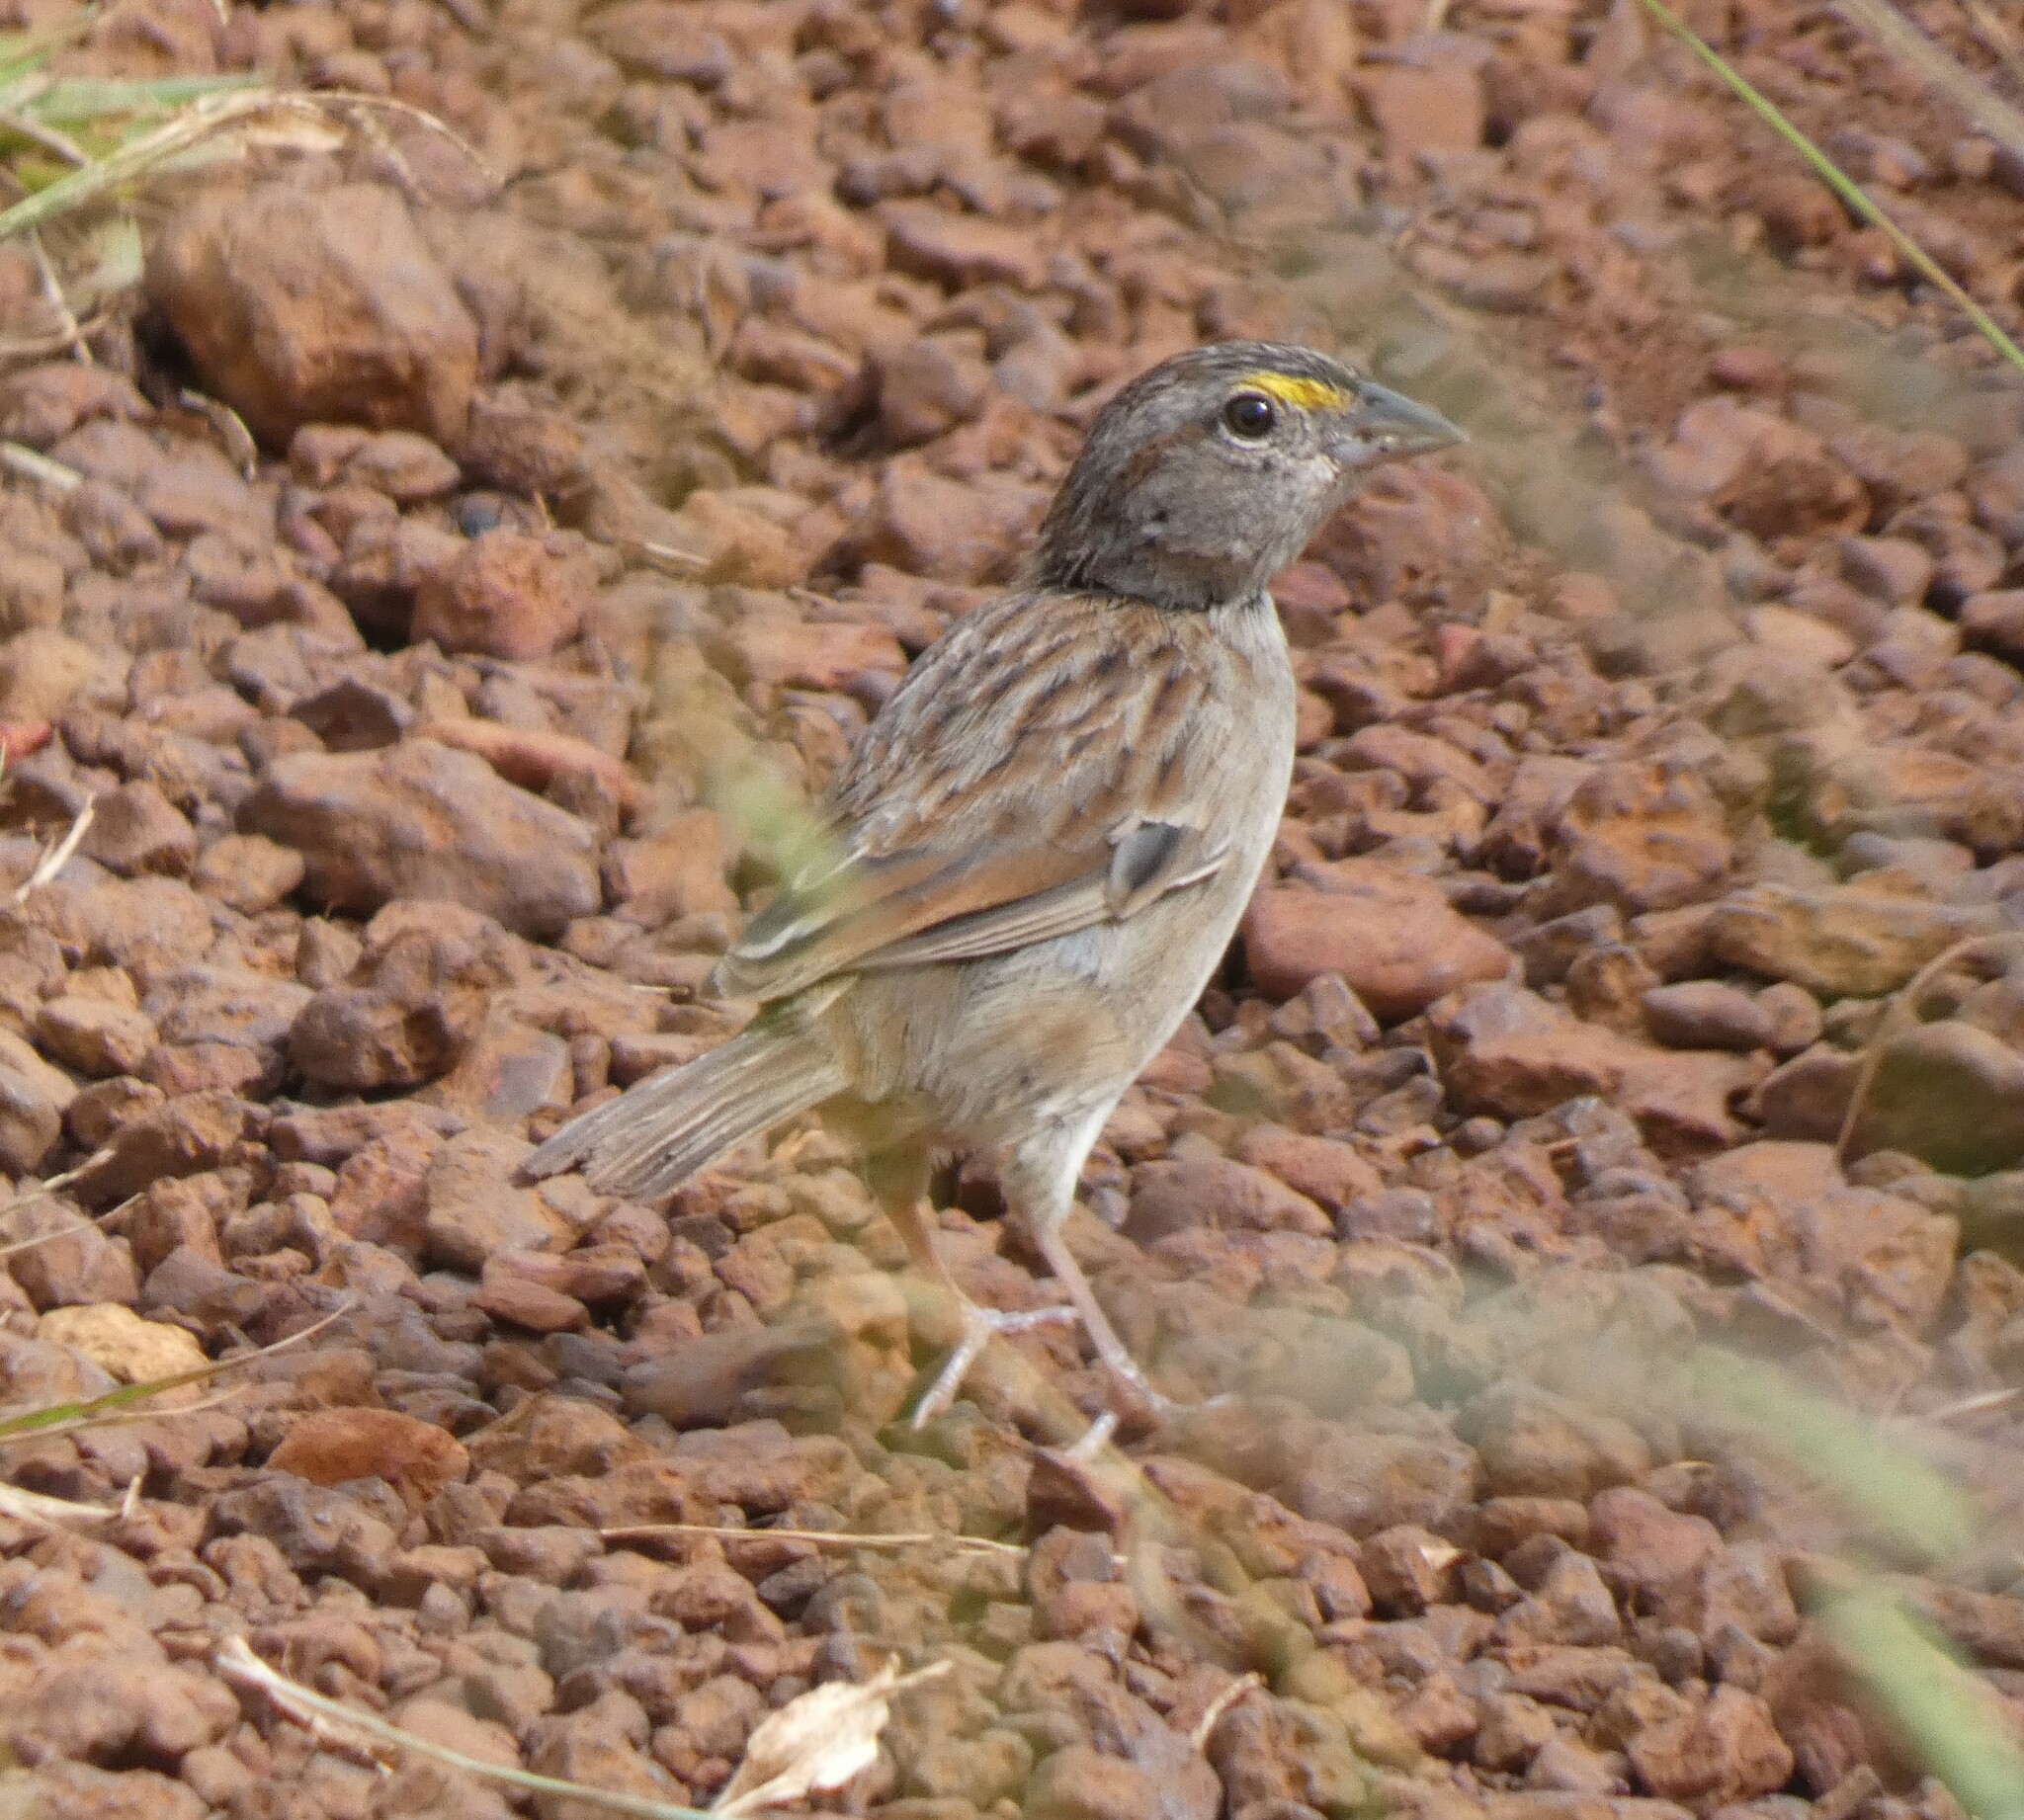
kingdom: Animalia
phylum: Chordata
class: Aves
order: Passeriformes
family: Passerellidae
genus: Ammodramus
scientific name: Ammodramus humeralis
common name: Grassland sparrow
